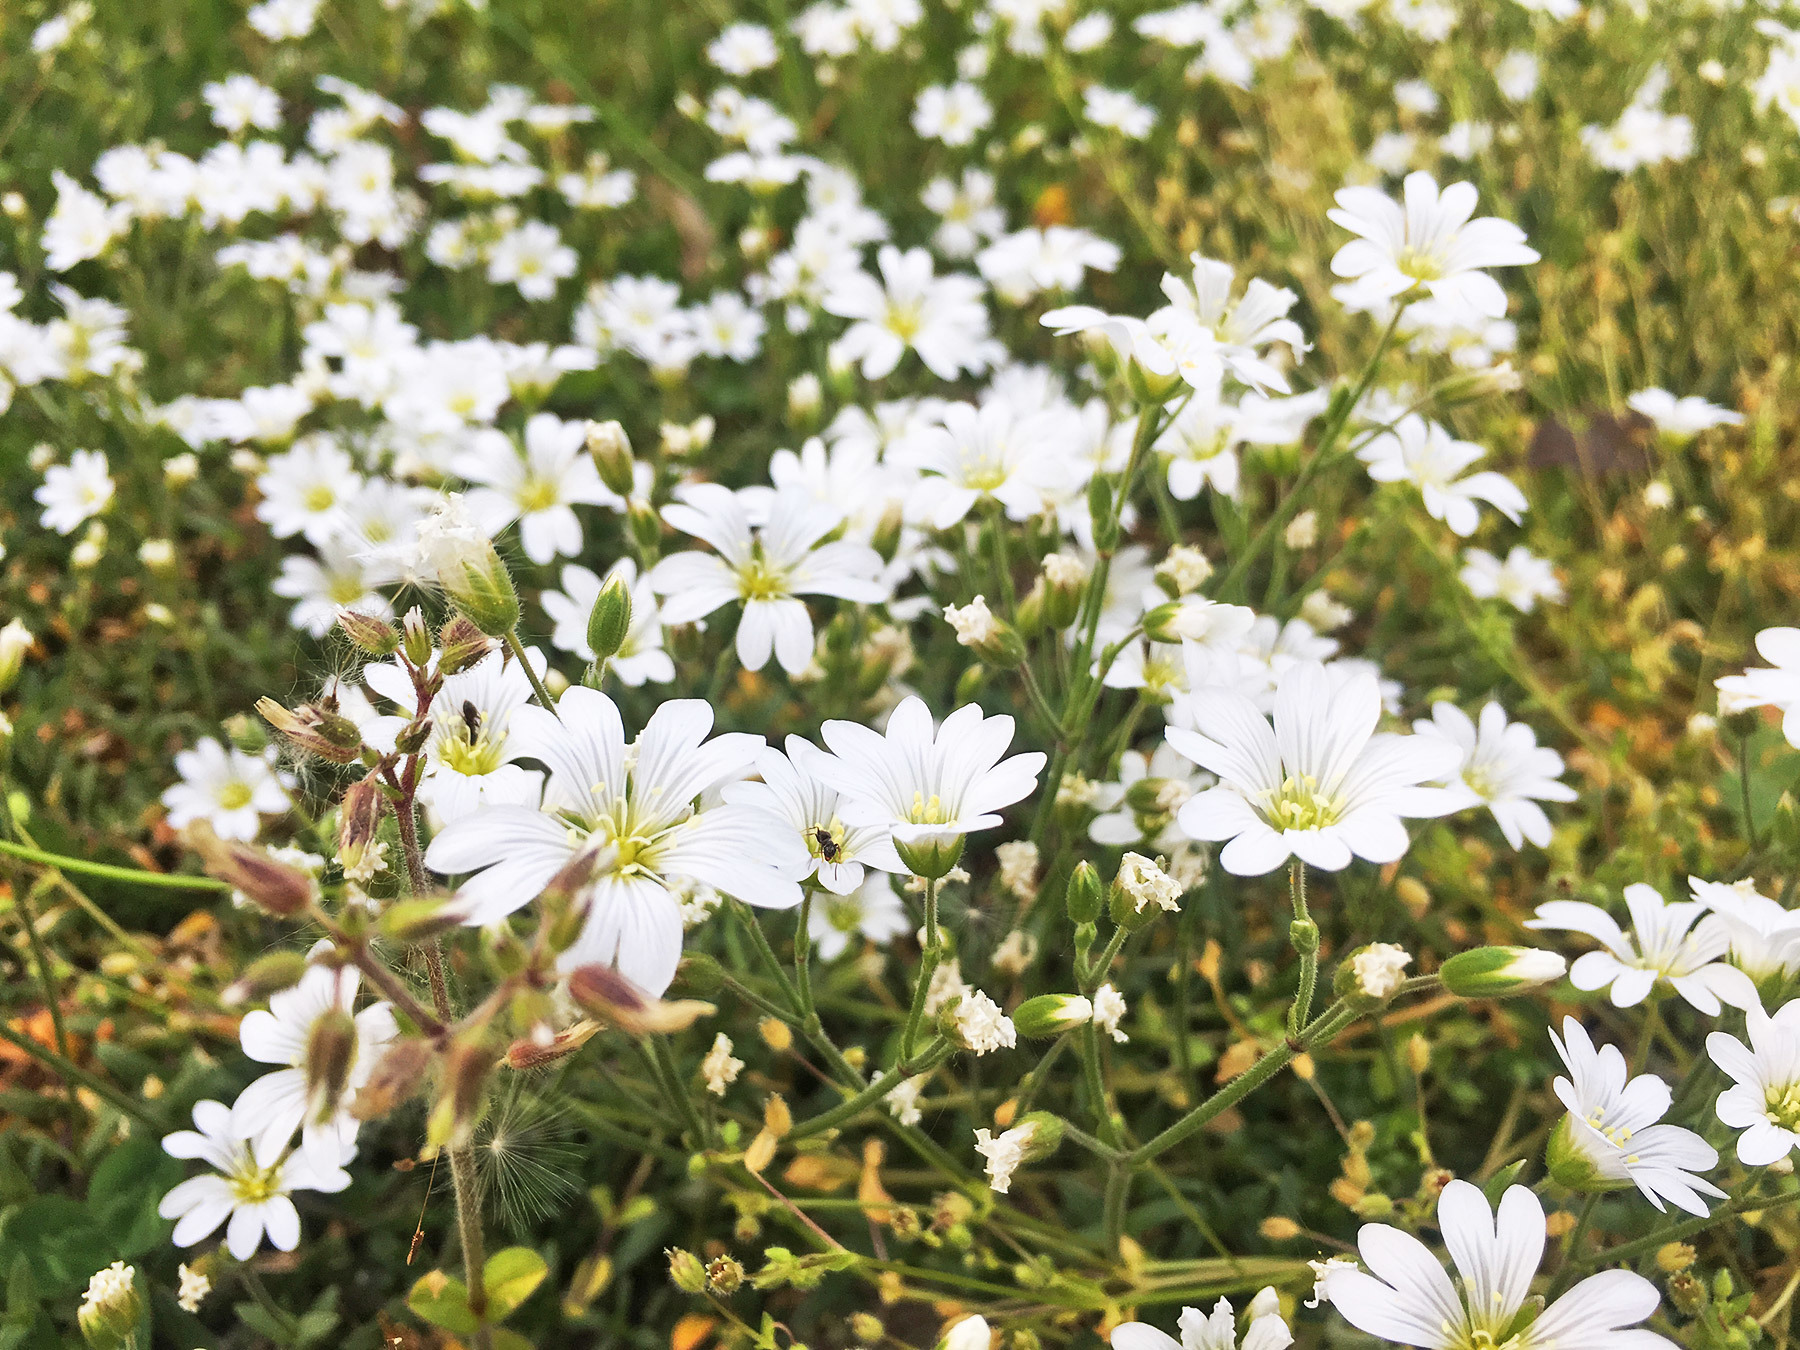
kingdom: Plantae
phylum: Tracheophyta
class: Magnoliopsida
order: Caryophyllales
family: Caryophyllaceae
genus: Cerastium
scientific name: Cerastium arvense
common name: Field mouse-ear
